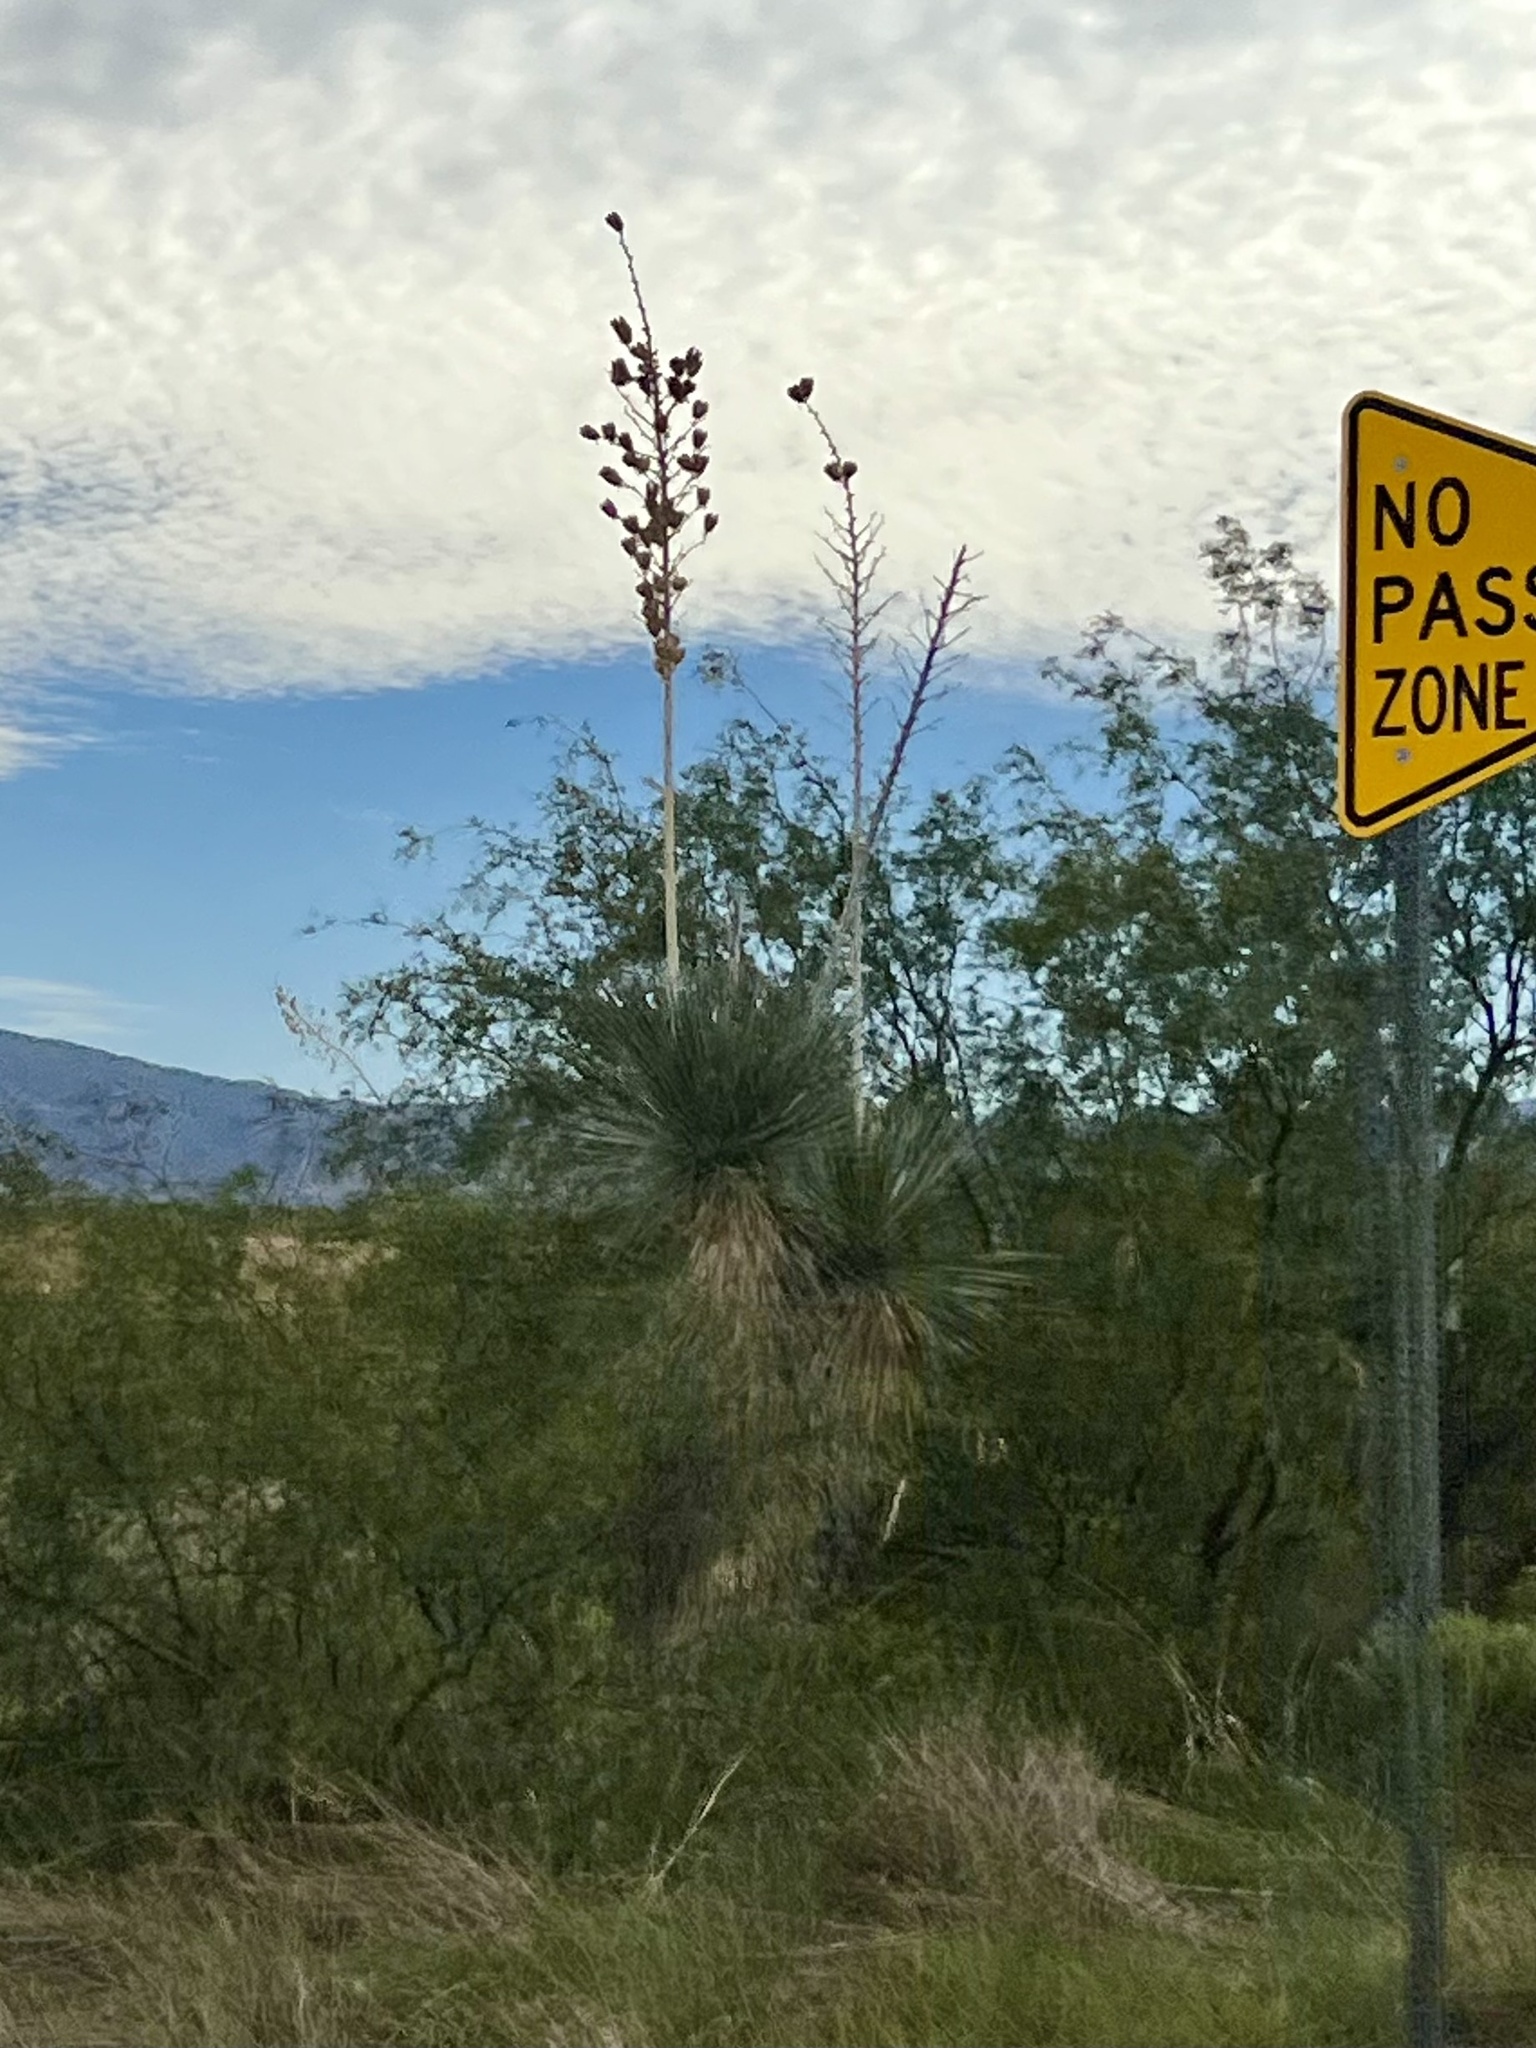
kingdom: Plantae
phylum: Tracheophyta
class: Liliopsida
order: Asparagales
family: Asparagaceae
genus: Yucca
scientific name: Yucca elata
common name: Palmella
